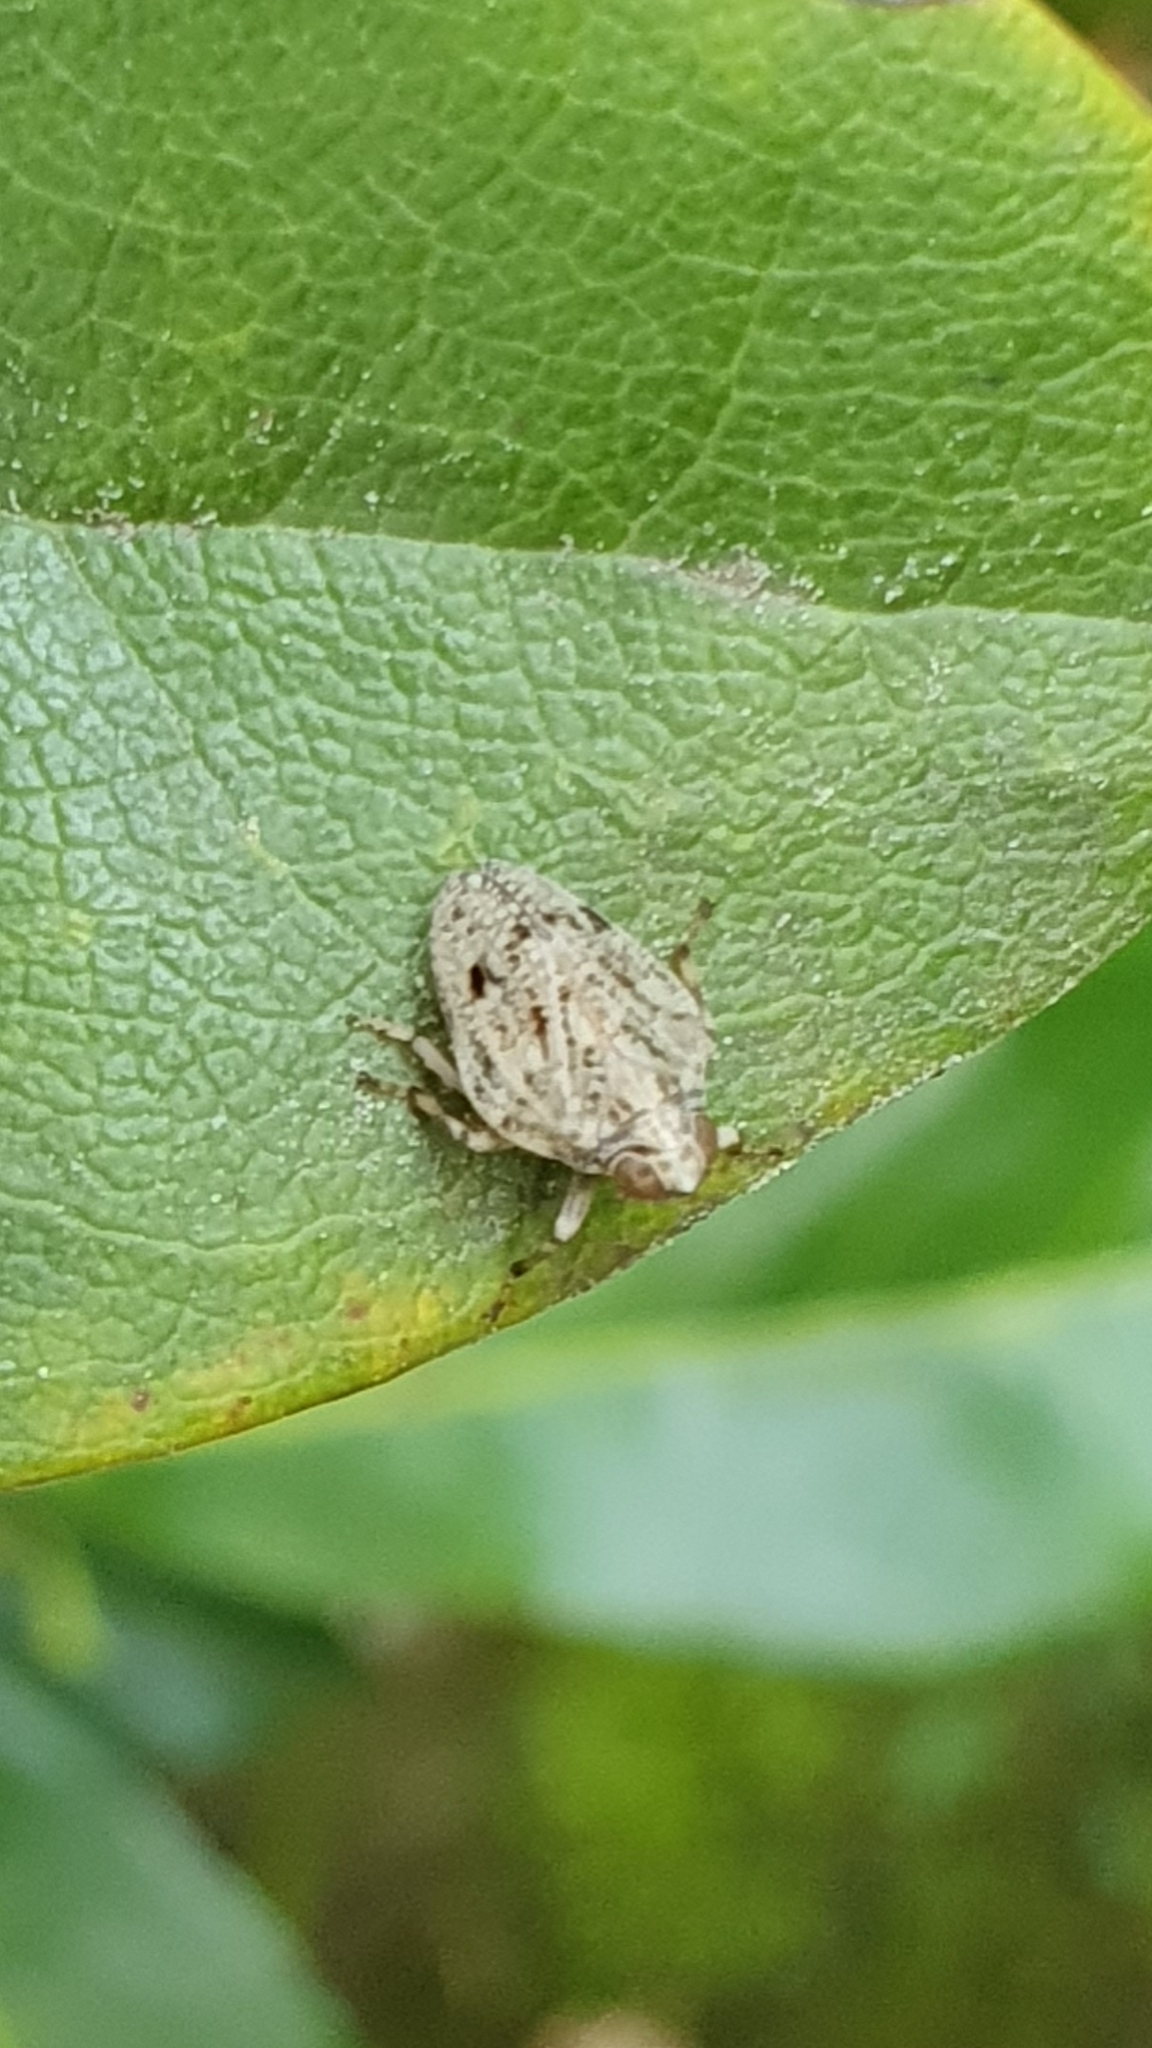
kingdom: Animalia
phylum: Arthropoda
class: Insecta
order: Hemiptera
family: Issidae
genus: Issus
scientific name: Issus coleoptratus
